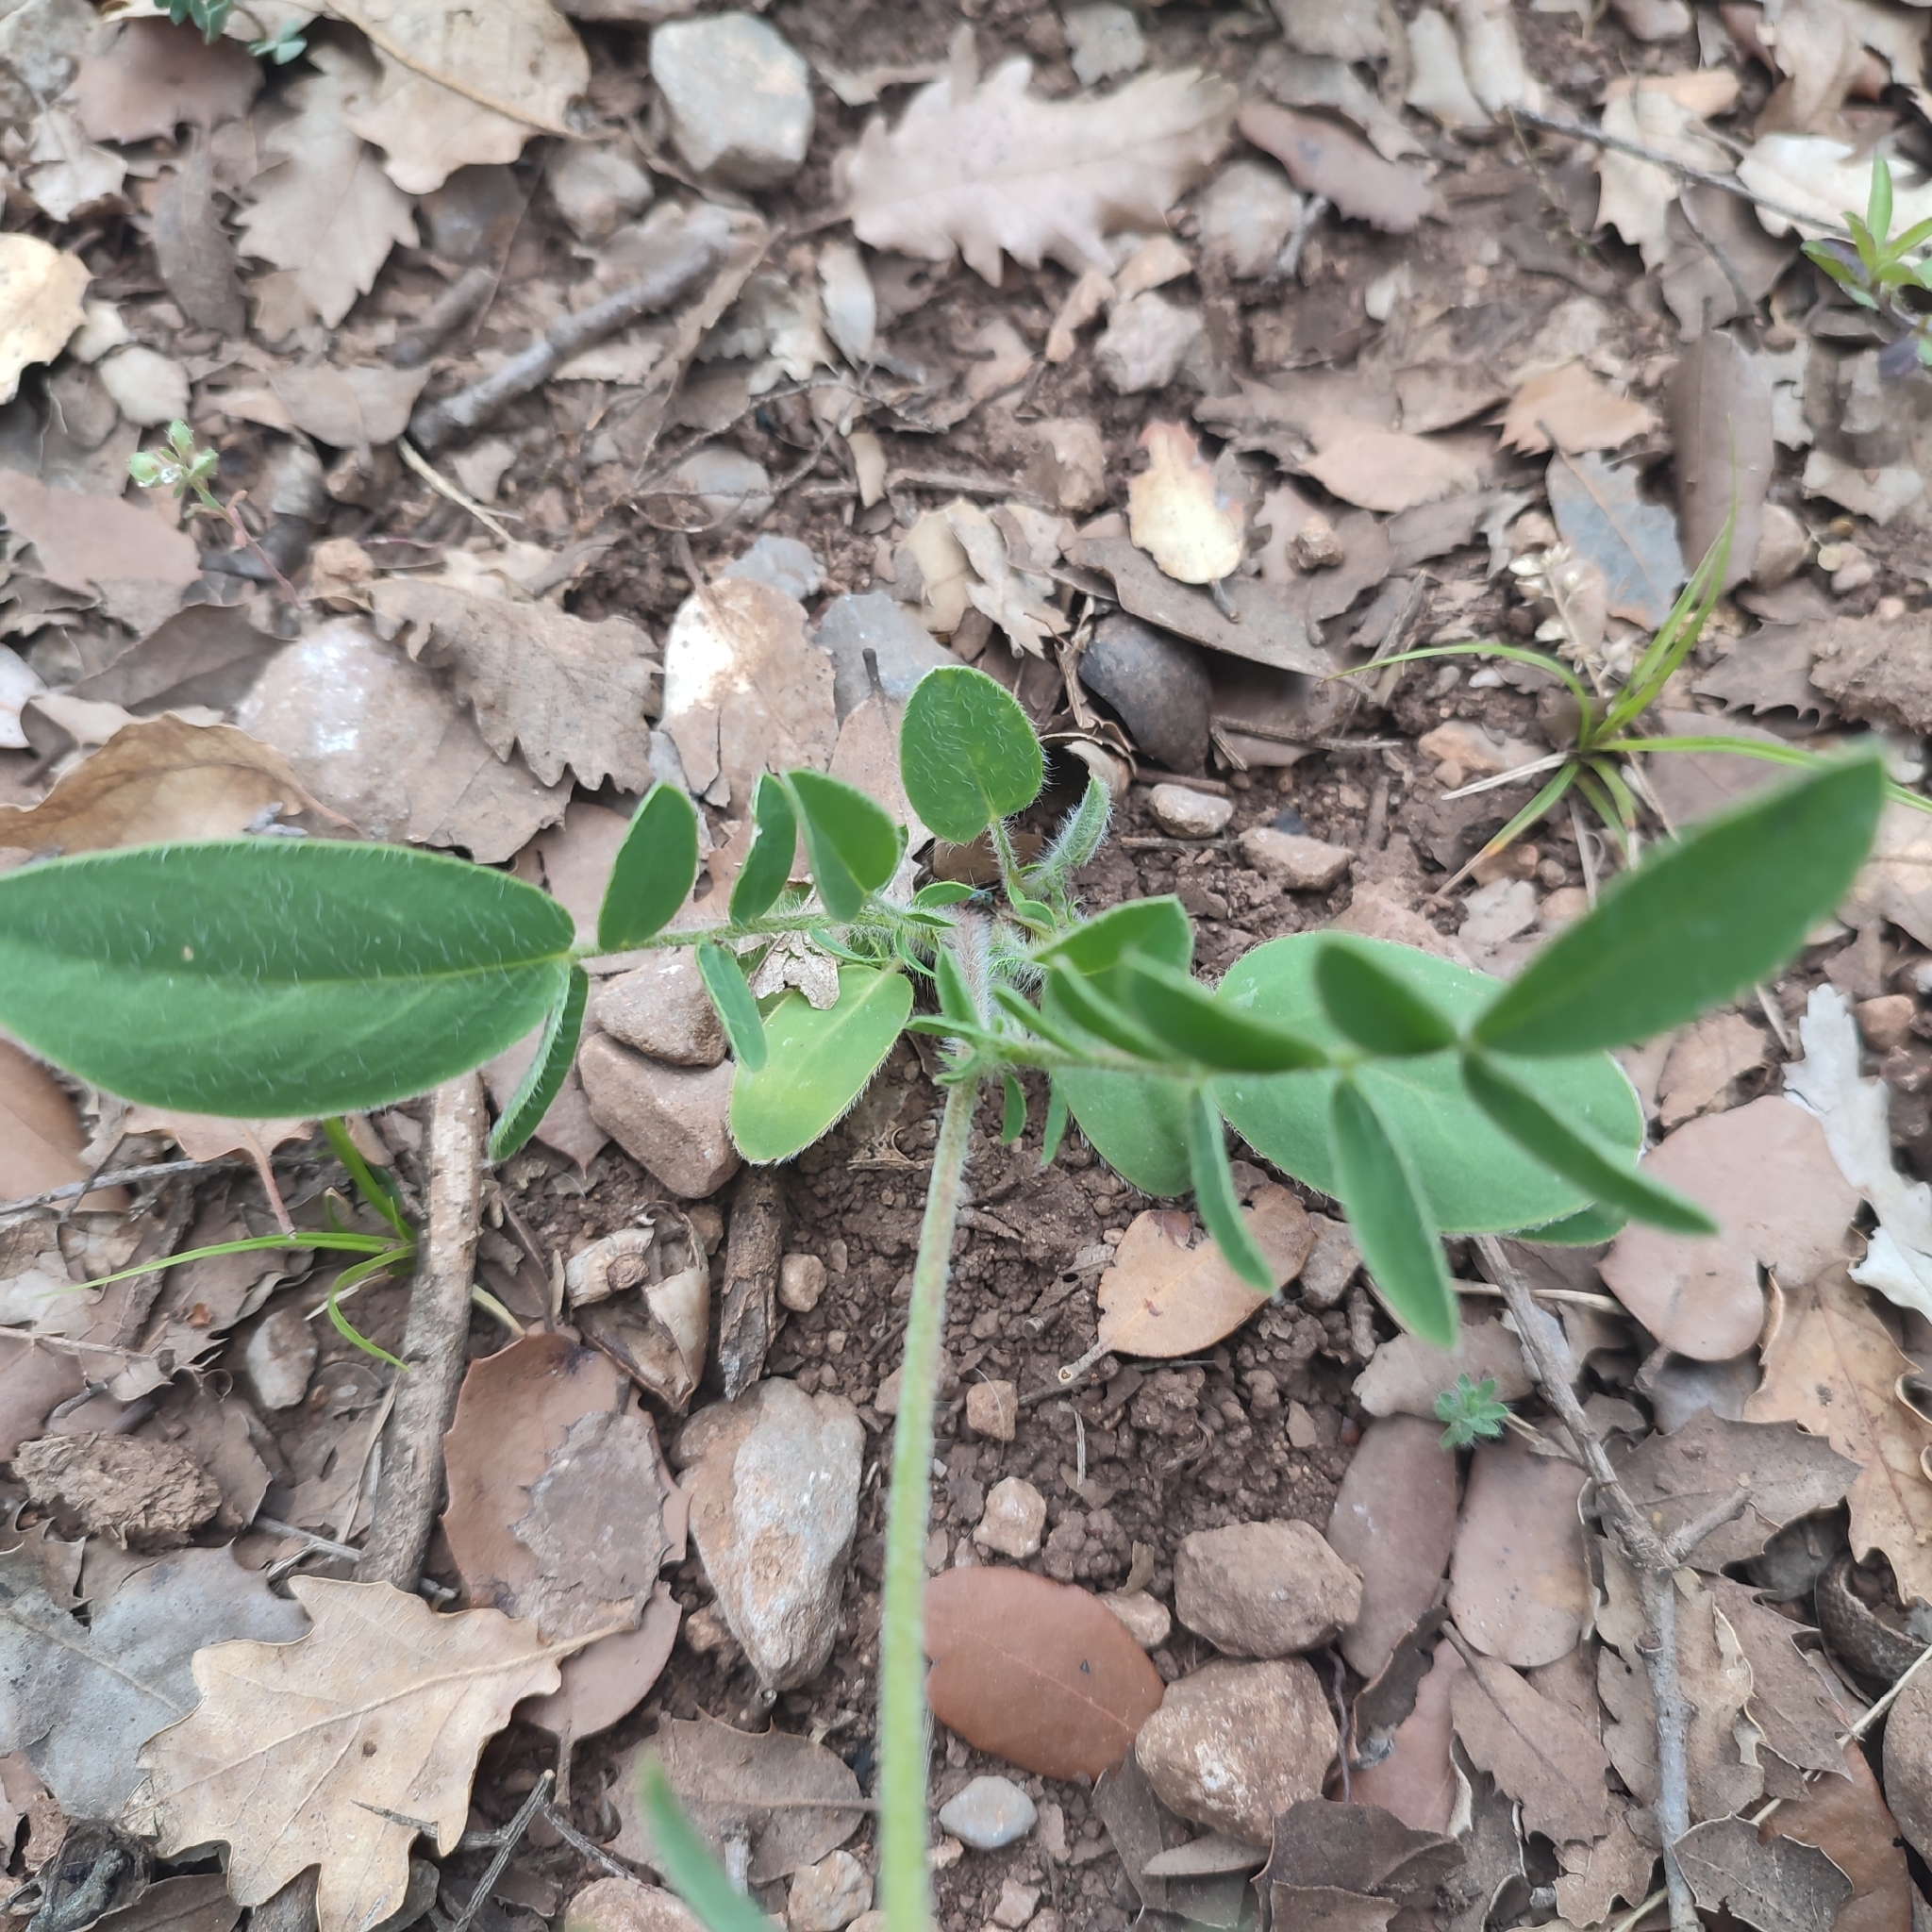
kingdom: Plantae
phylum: Tracheophyta
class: Magnoliopsida
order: Fabales
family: Fabaceae
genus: Anthyllis
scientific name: Anthyllis vulneraria
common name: Kidney vetch
